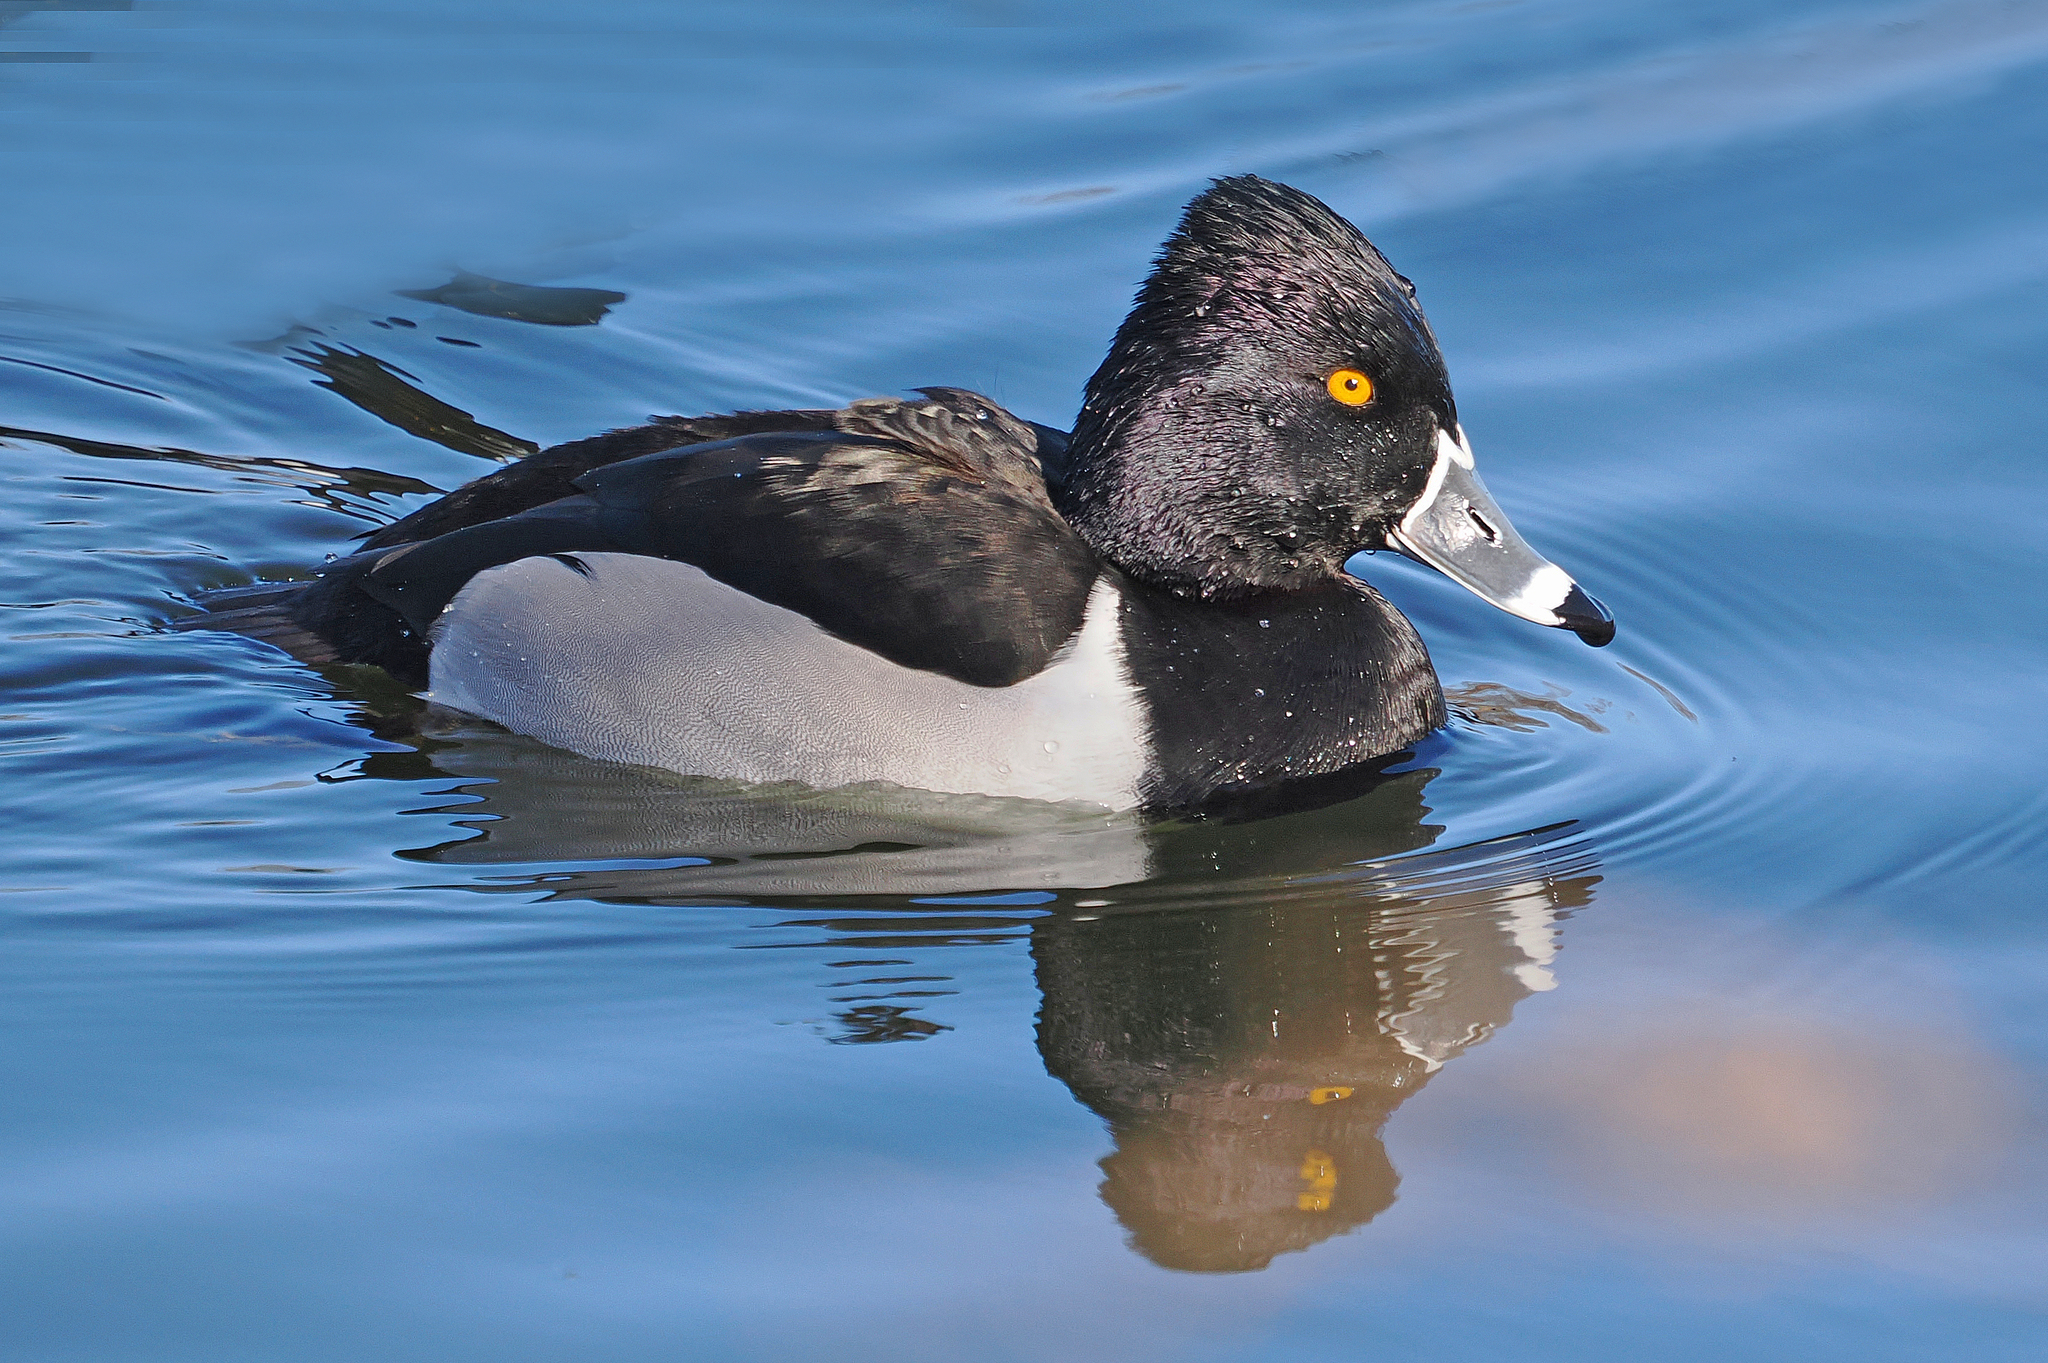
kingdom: Animalia
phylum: Chordata
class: Aves
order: Anseriformes
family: Anatidae
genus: Aythya
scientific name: Aythya collaris
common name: Ring-necked duck
